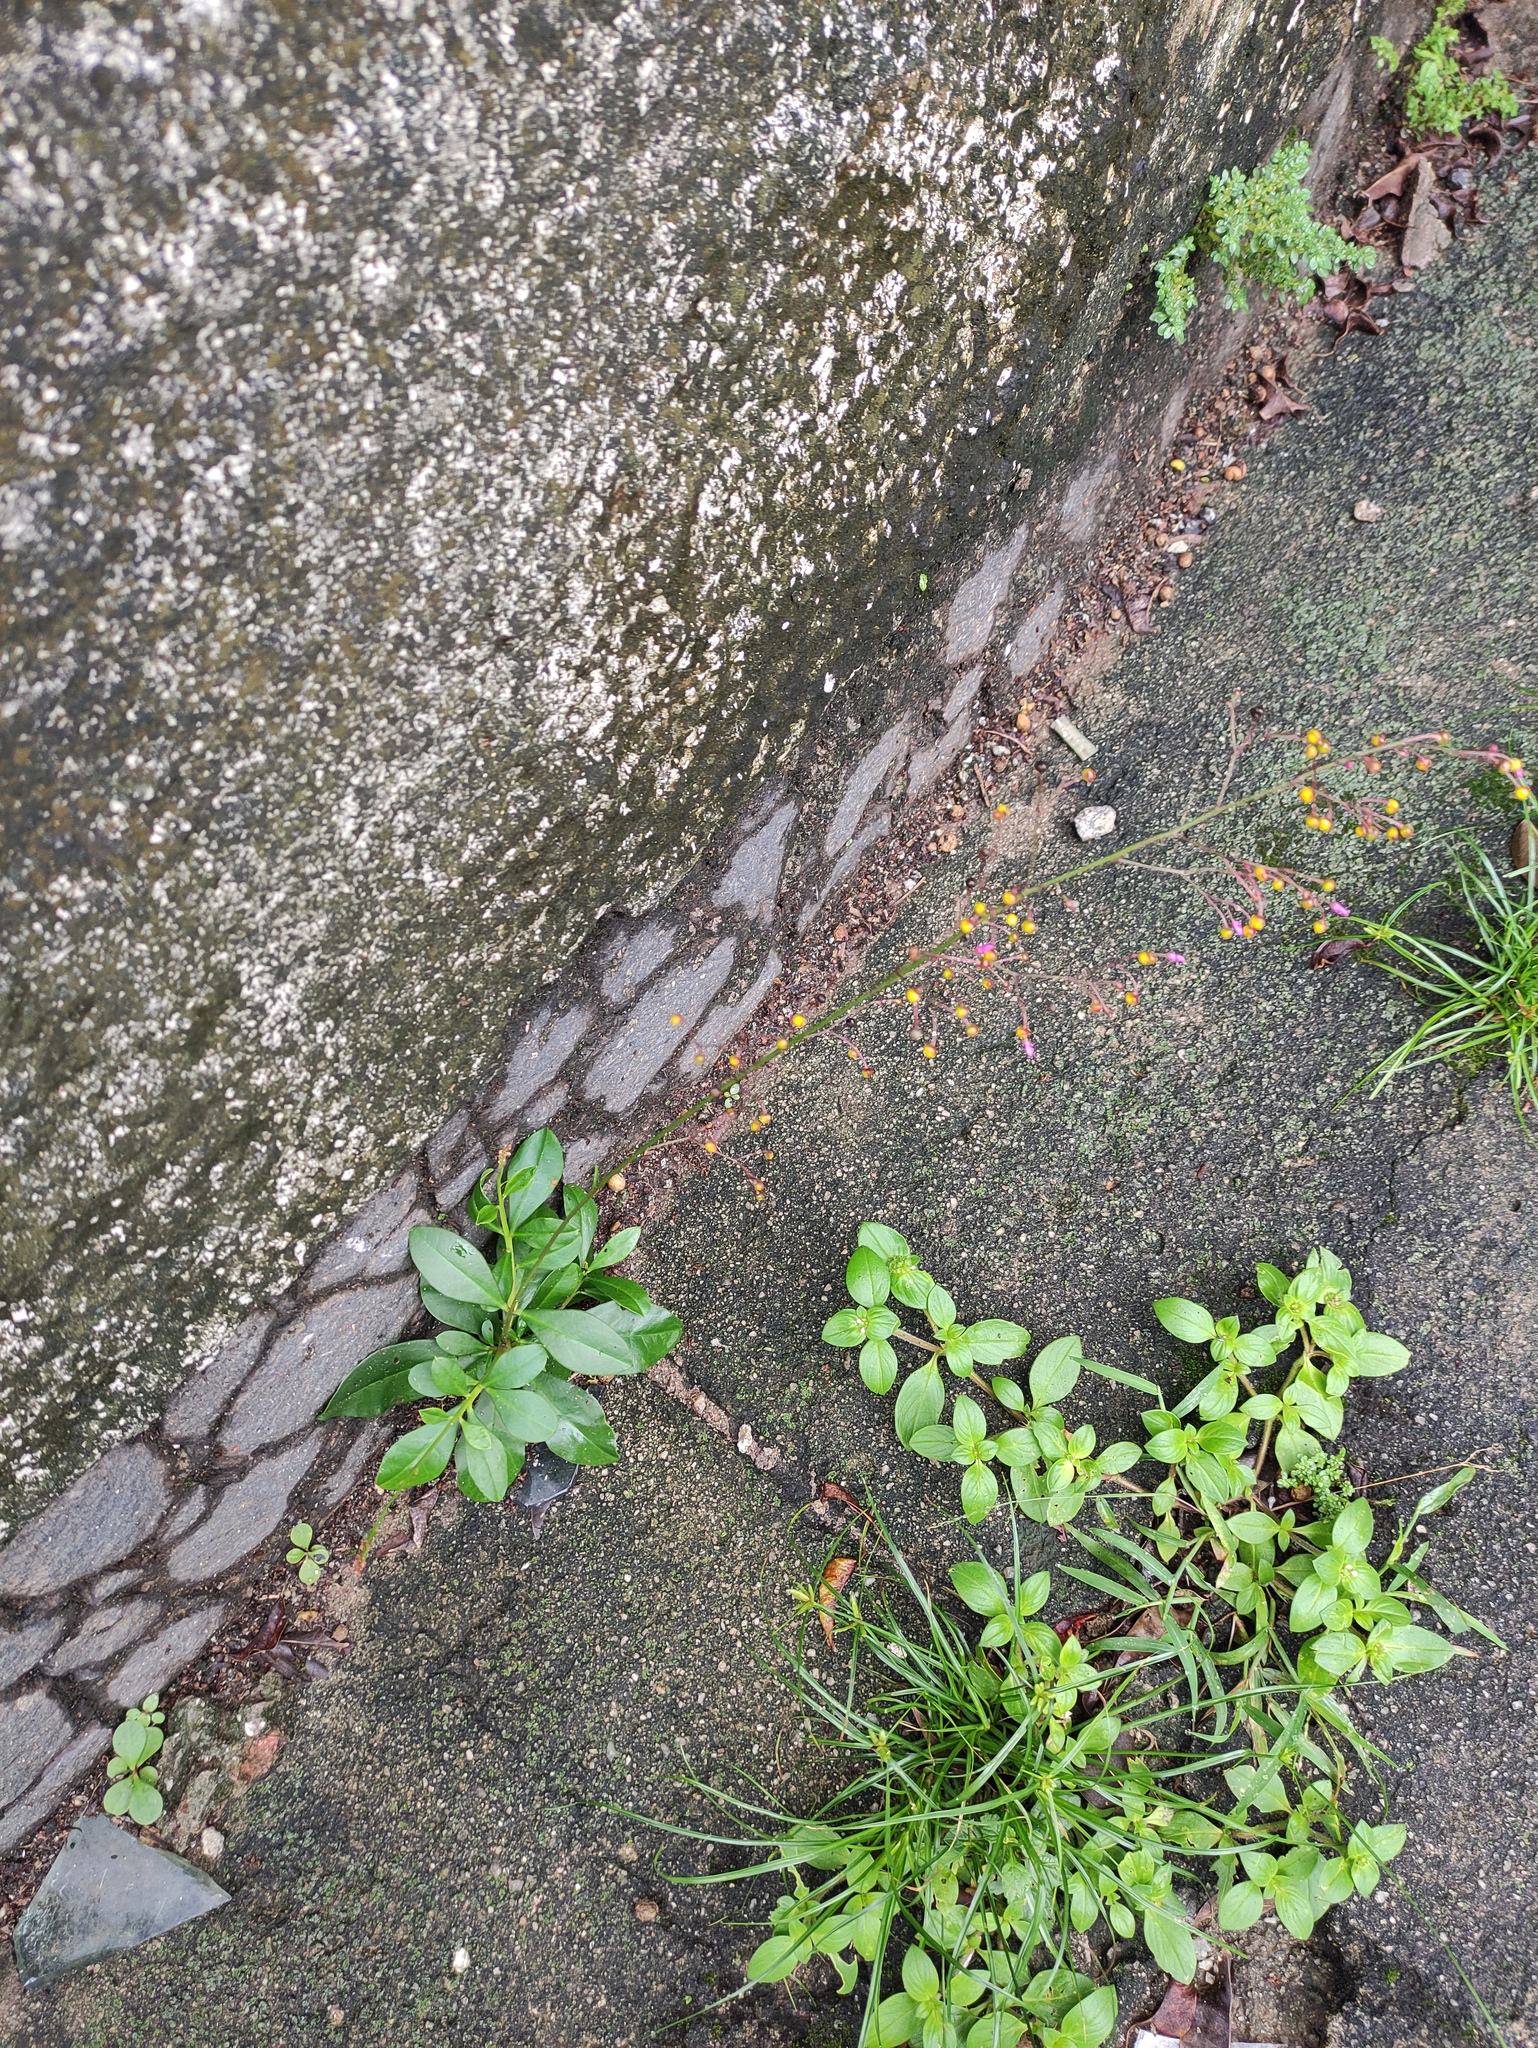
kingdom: Plantae
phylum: Tracheophyta
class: Magnoliopsida
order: Caryophyllales
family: Talinaceae
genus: Talinum
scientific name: Talinum paniculatum
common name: Jewels of opar
